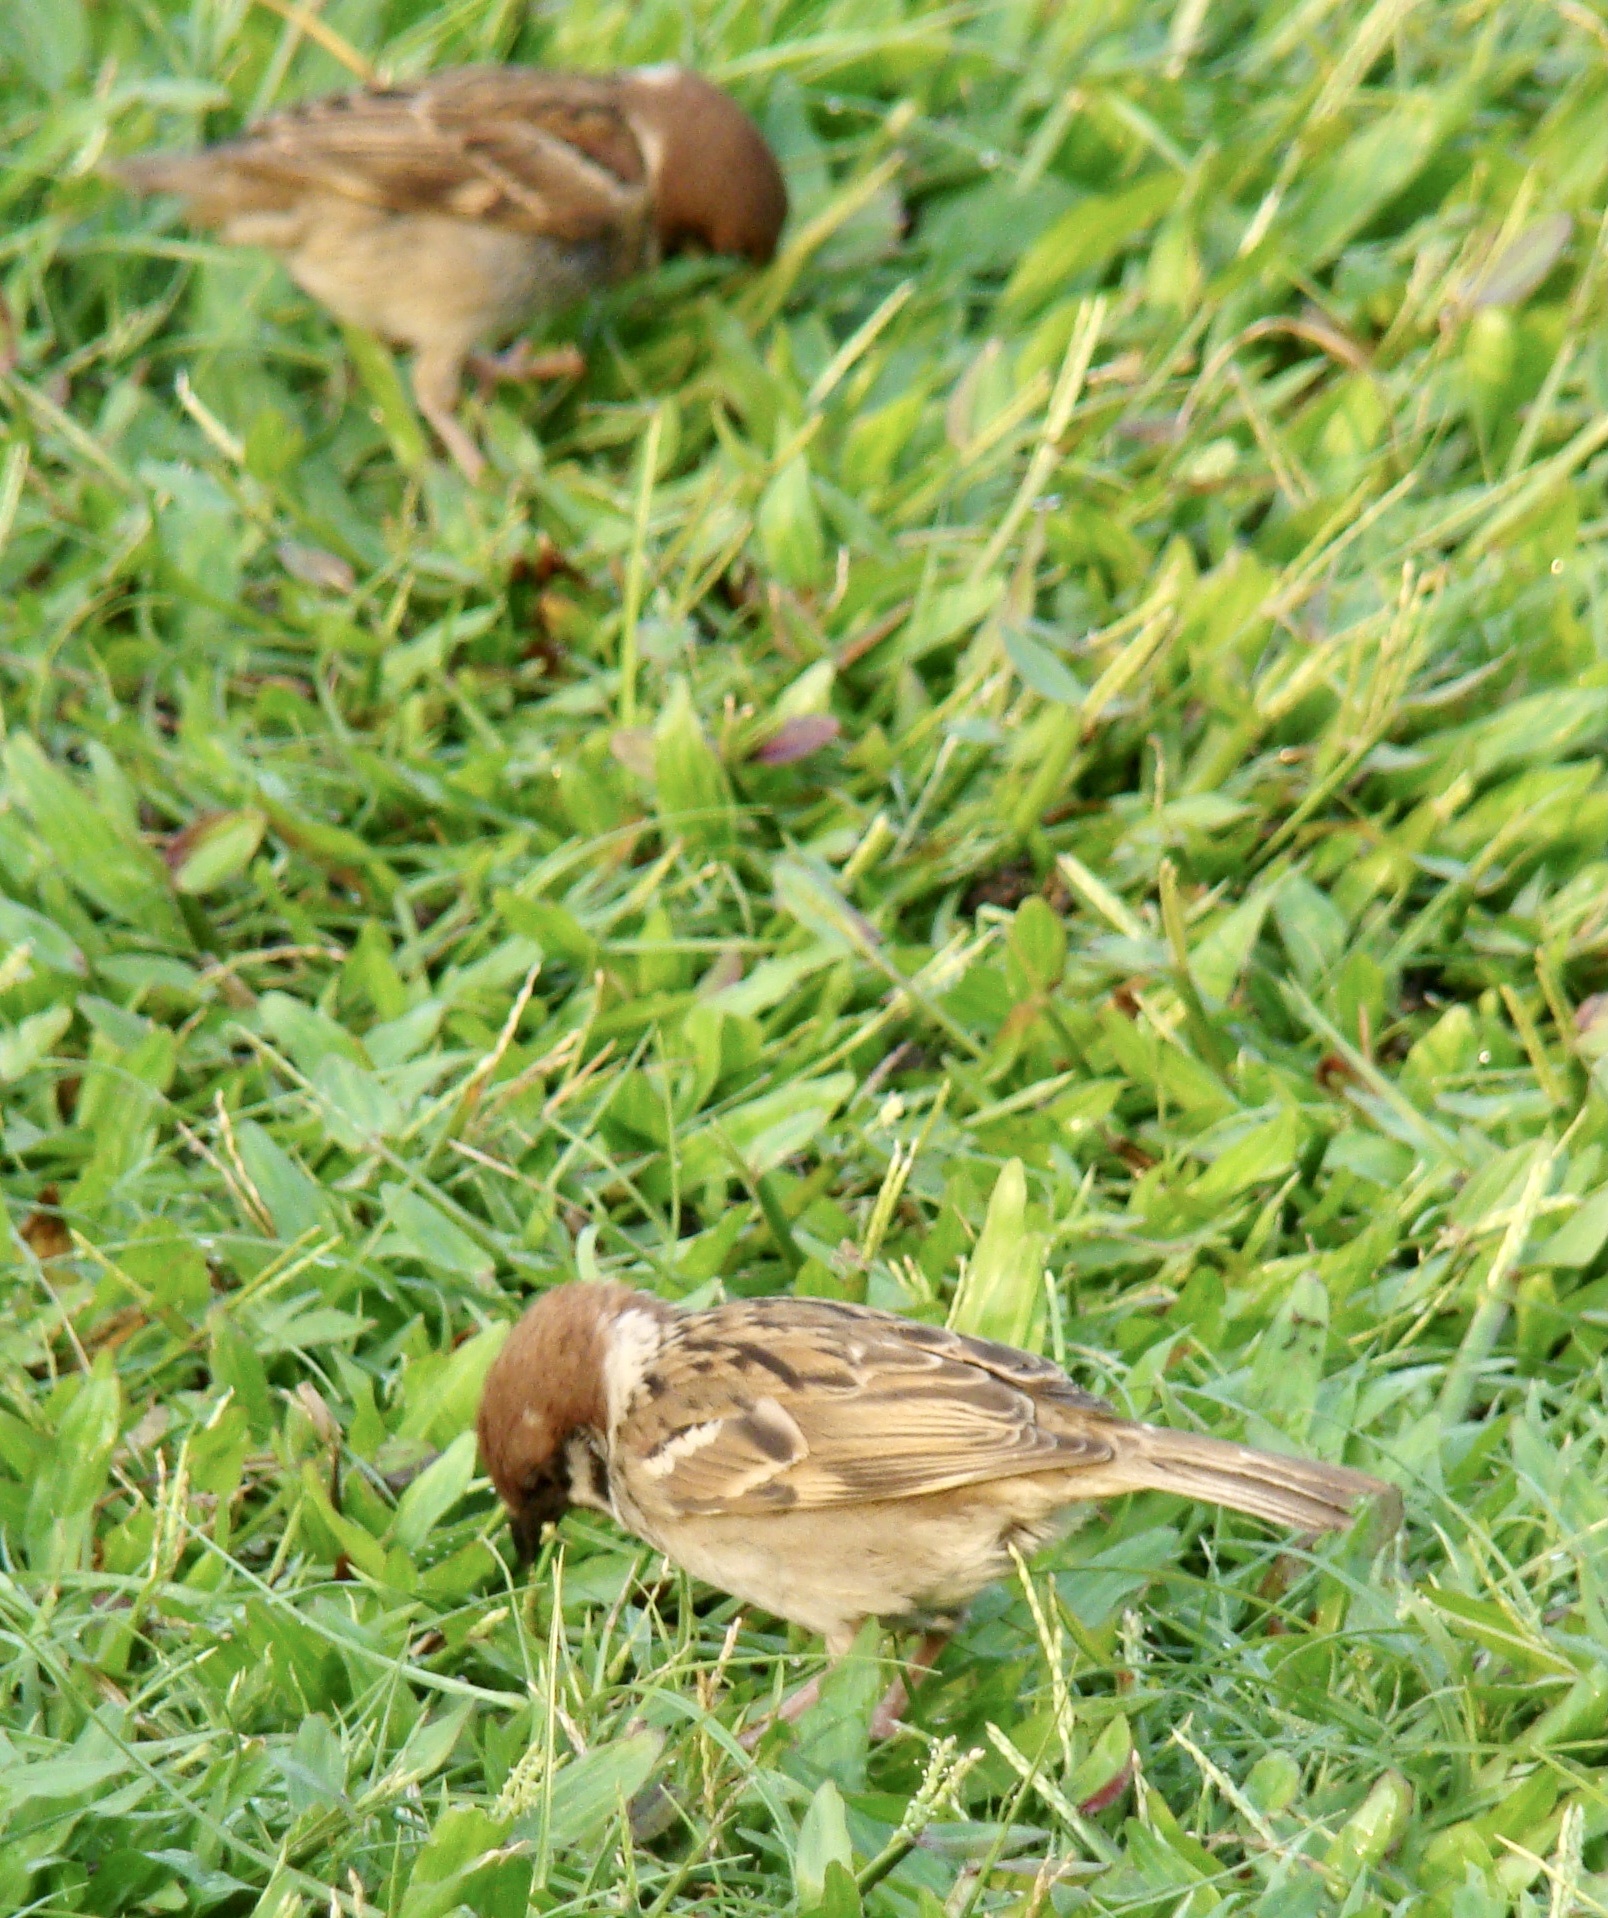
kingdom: Animalia
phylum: Chordata
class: Aves
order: Passeriformes
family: Passeridae
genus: Passer
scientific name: Passer montanus
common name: Eurasian tree sparrow
